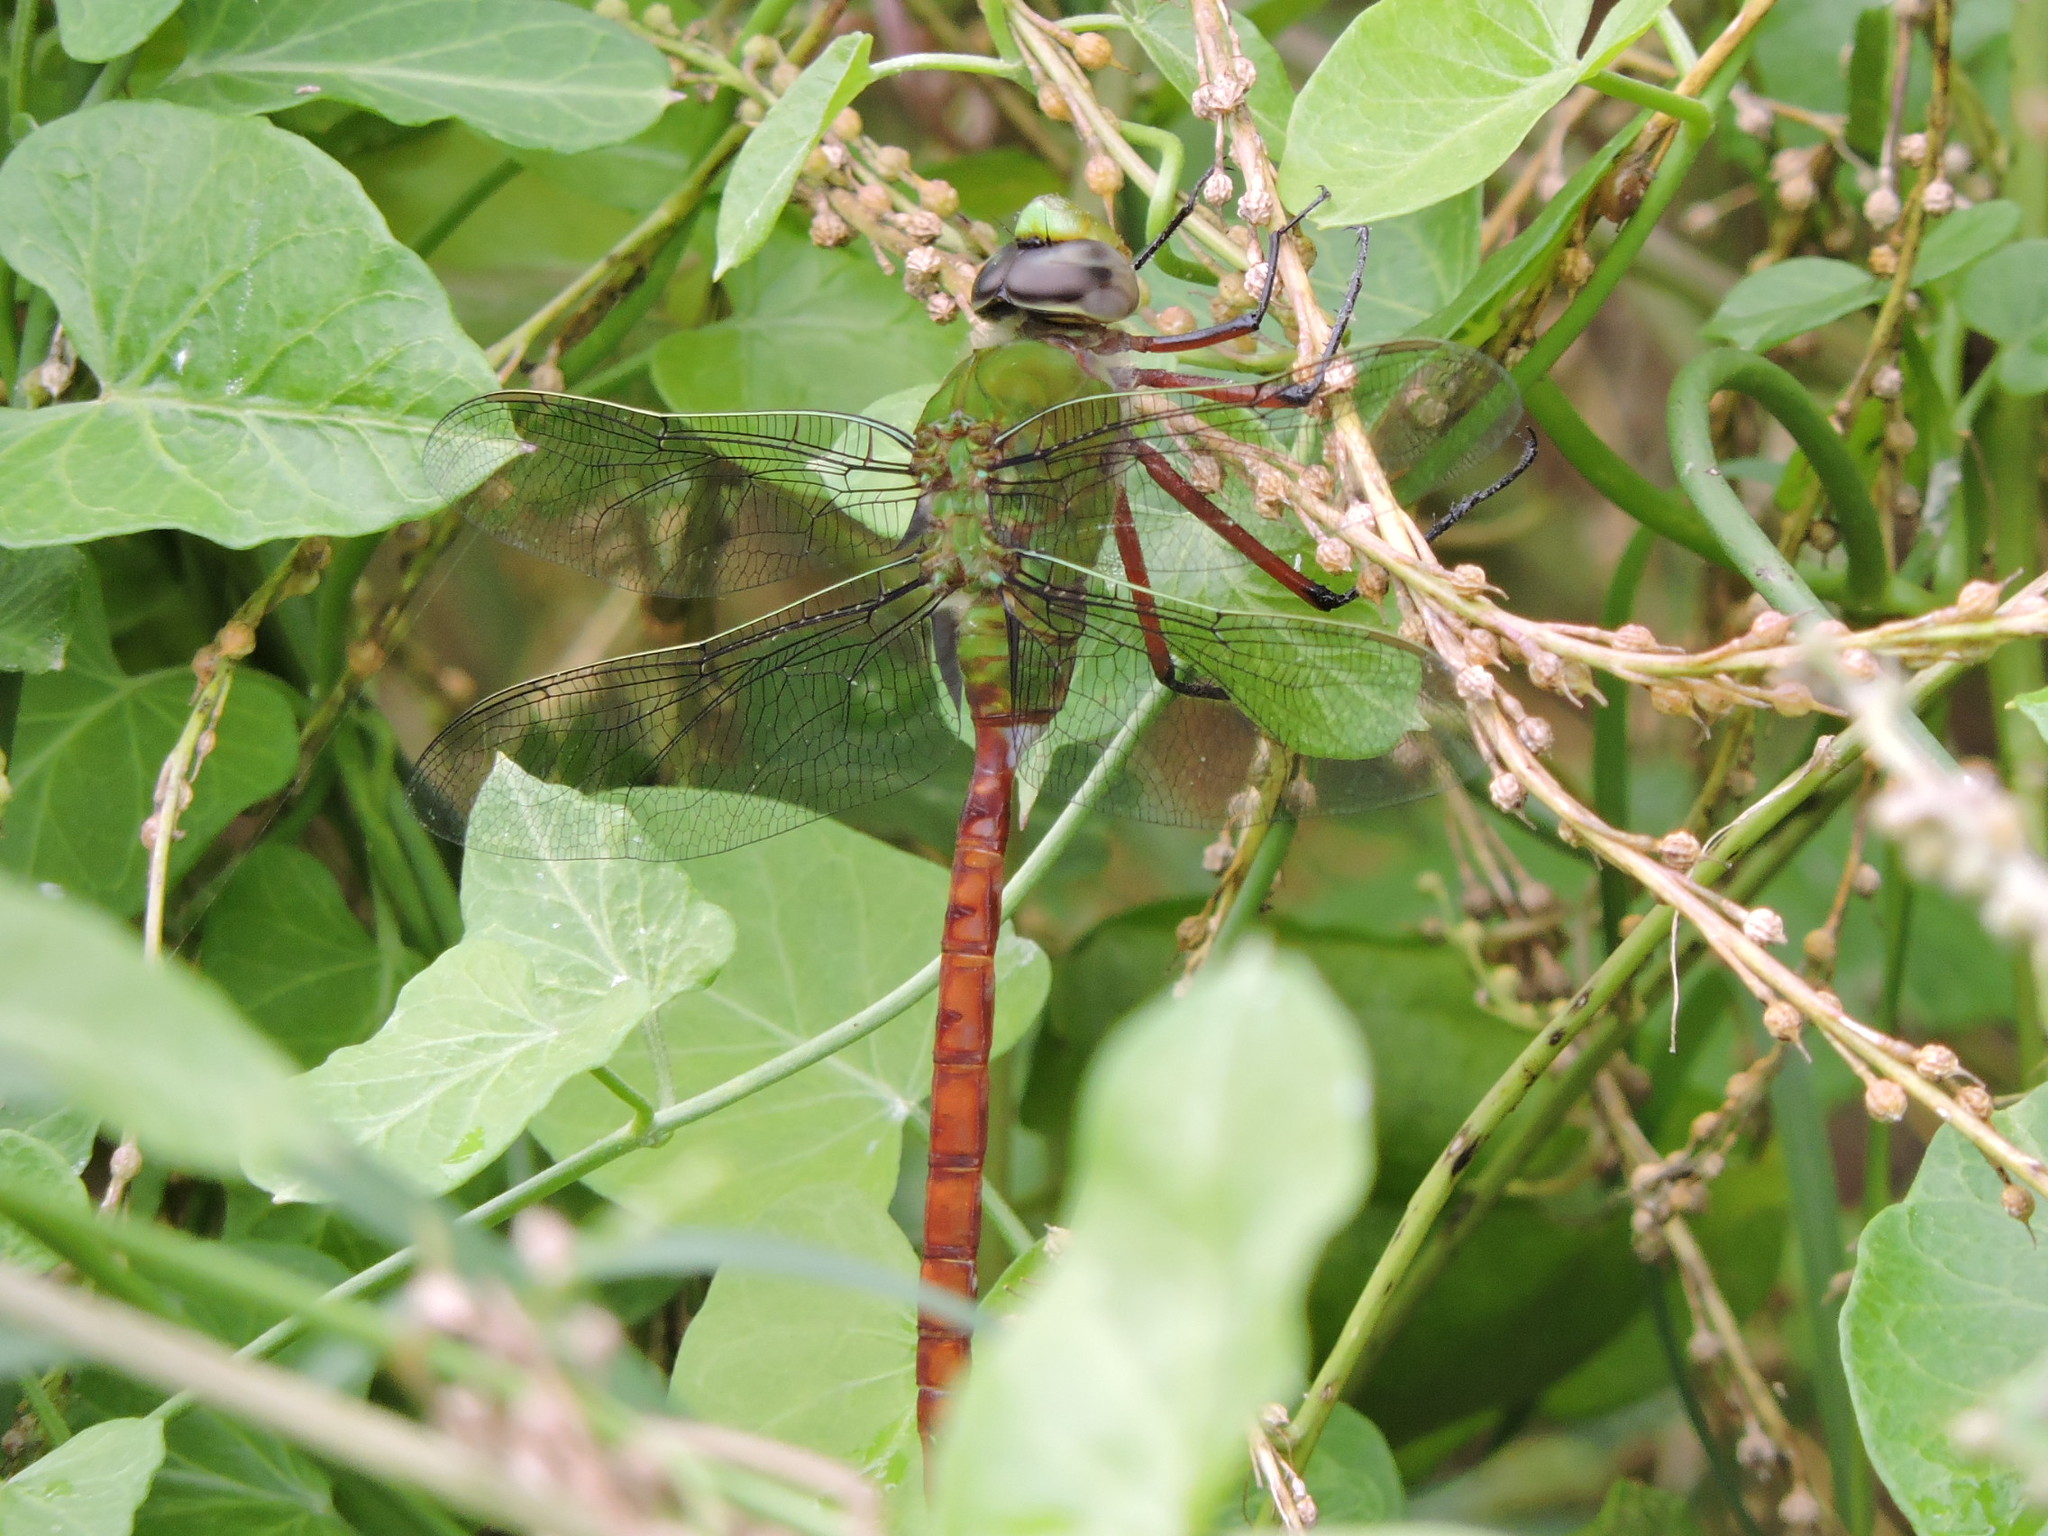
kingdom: Animalia
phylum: Arthropoda
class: Insecta
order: Odonata
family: Aeshnidae
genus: Anax
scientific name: Anax longipes
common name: Comet darner
